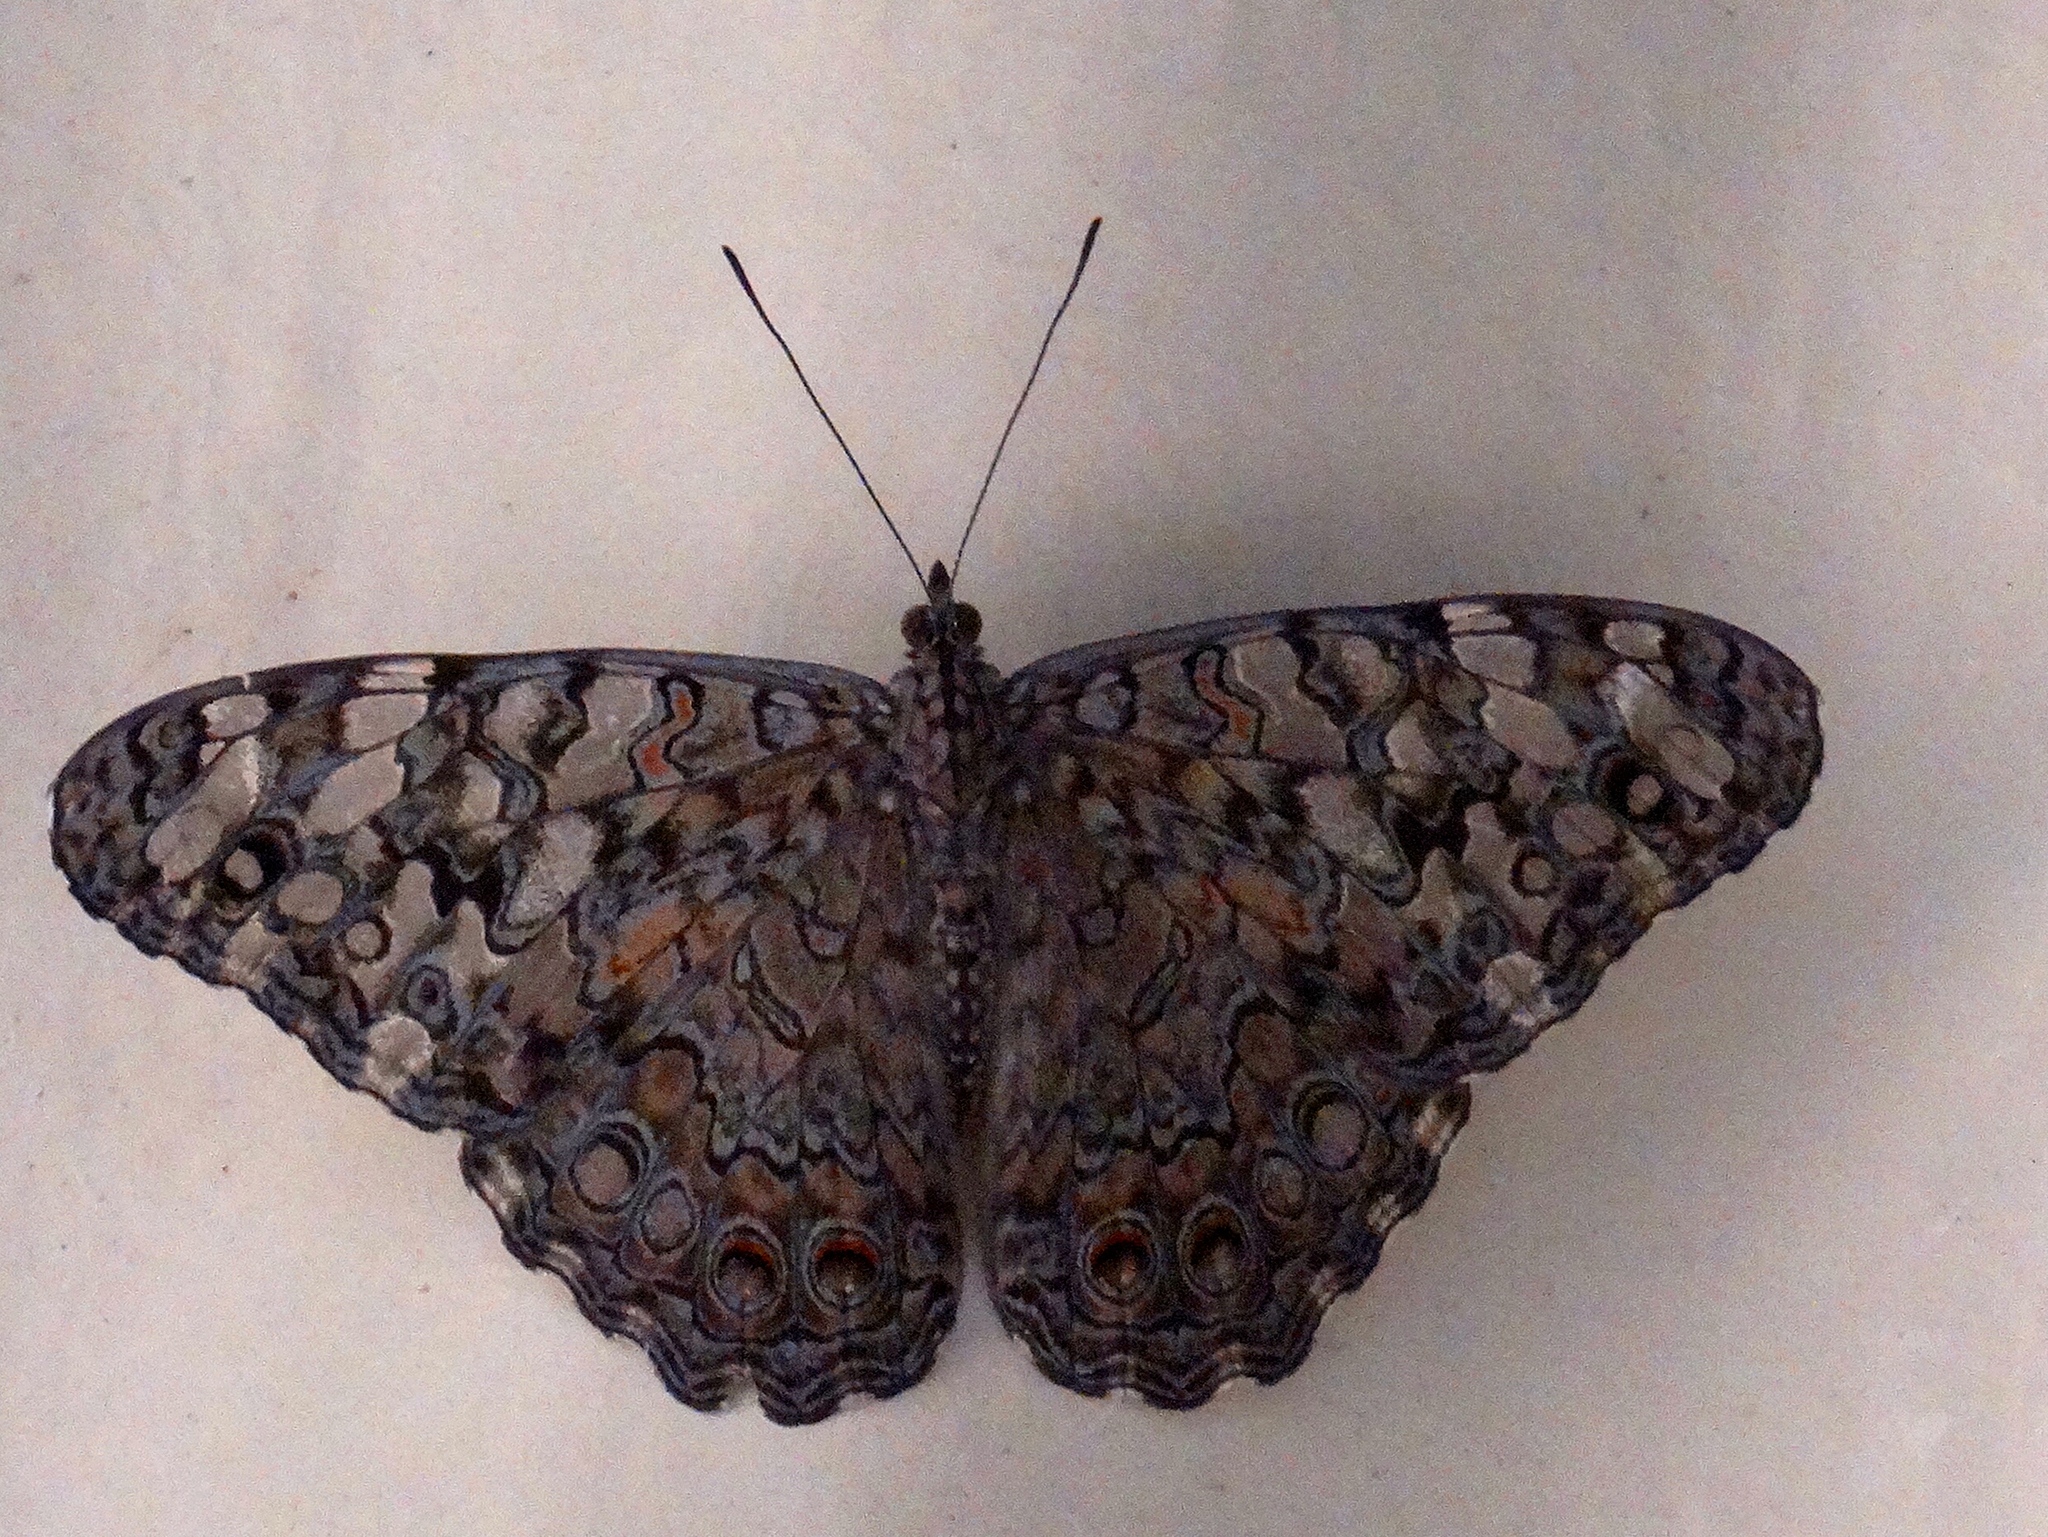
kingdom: Animalia
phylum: Arthropoda
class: Insecta
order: Lepidoptera
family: Nymphalidae
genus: Hamadryas
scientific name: Hamadryas februa
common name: Gray cracker
